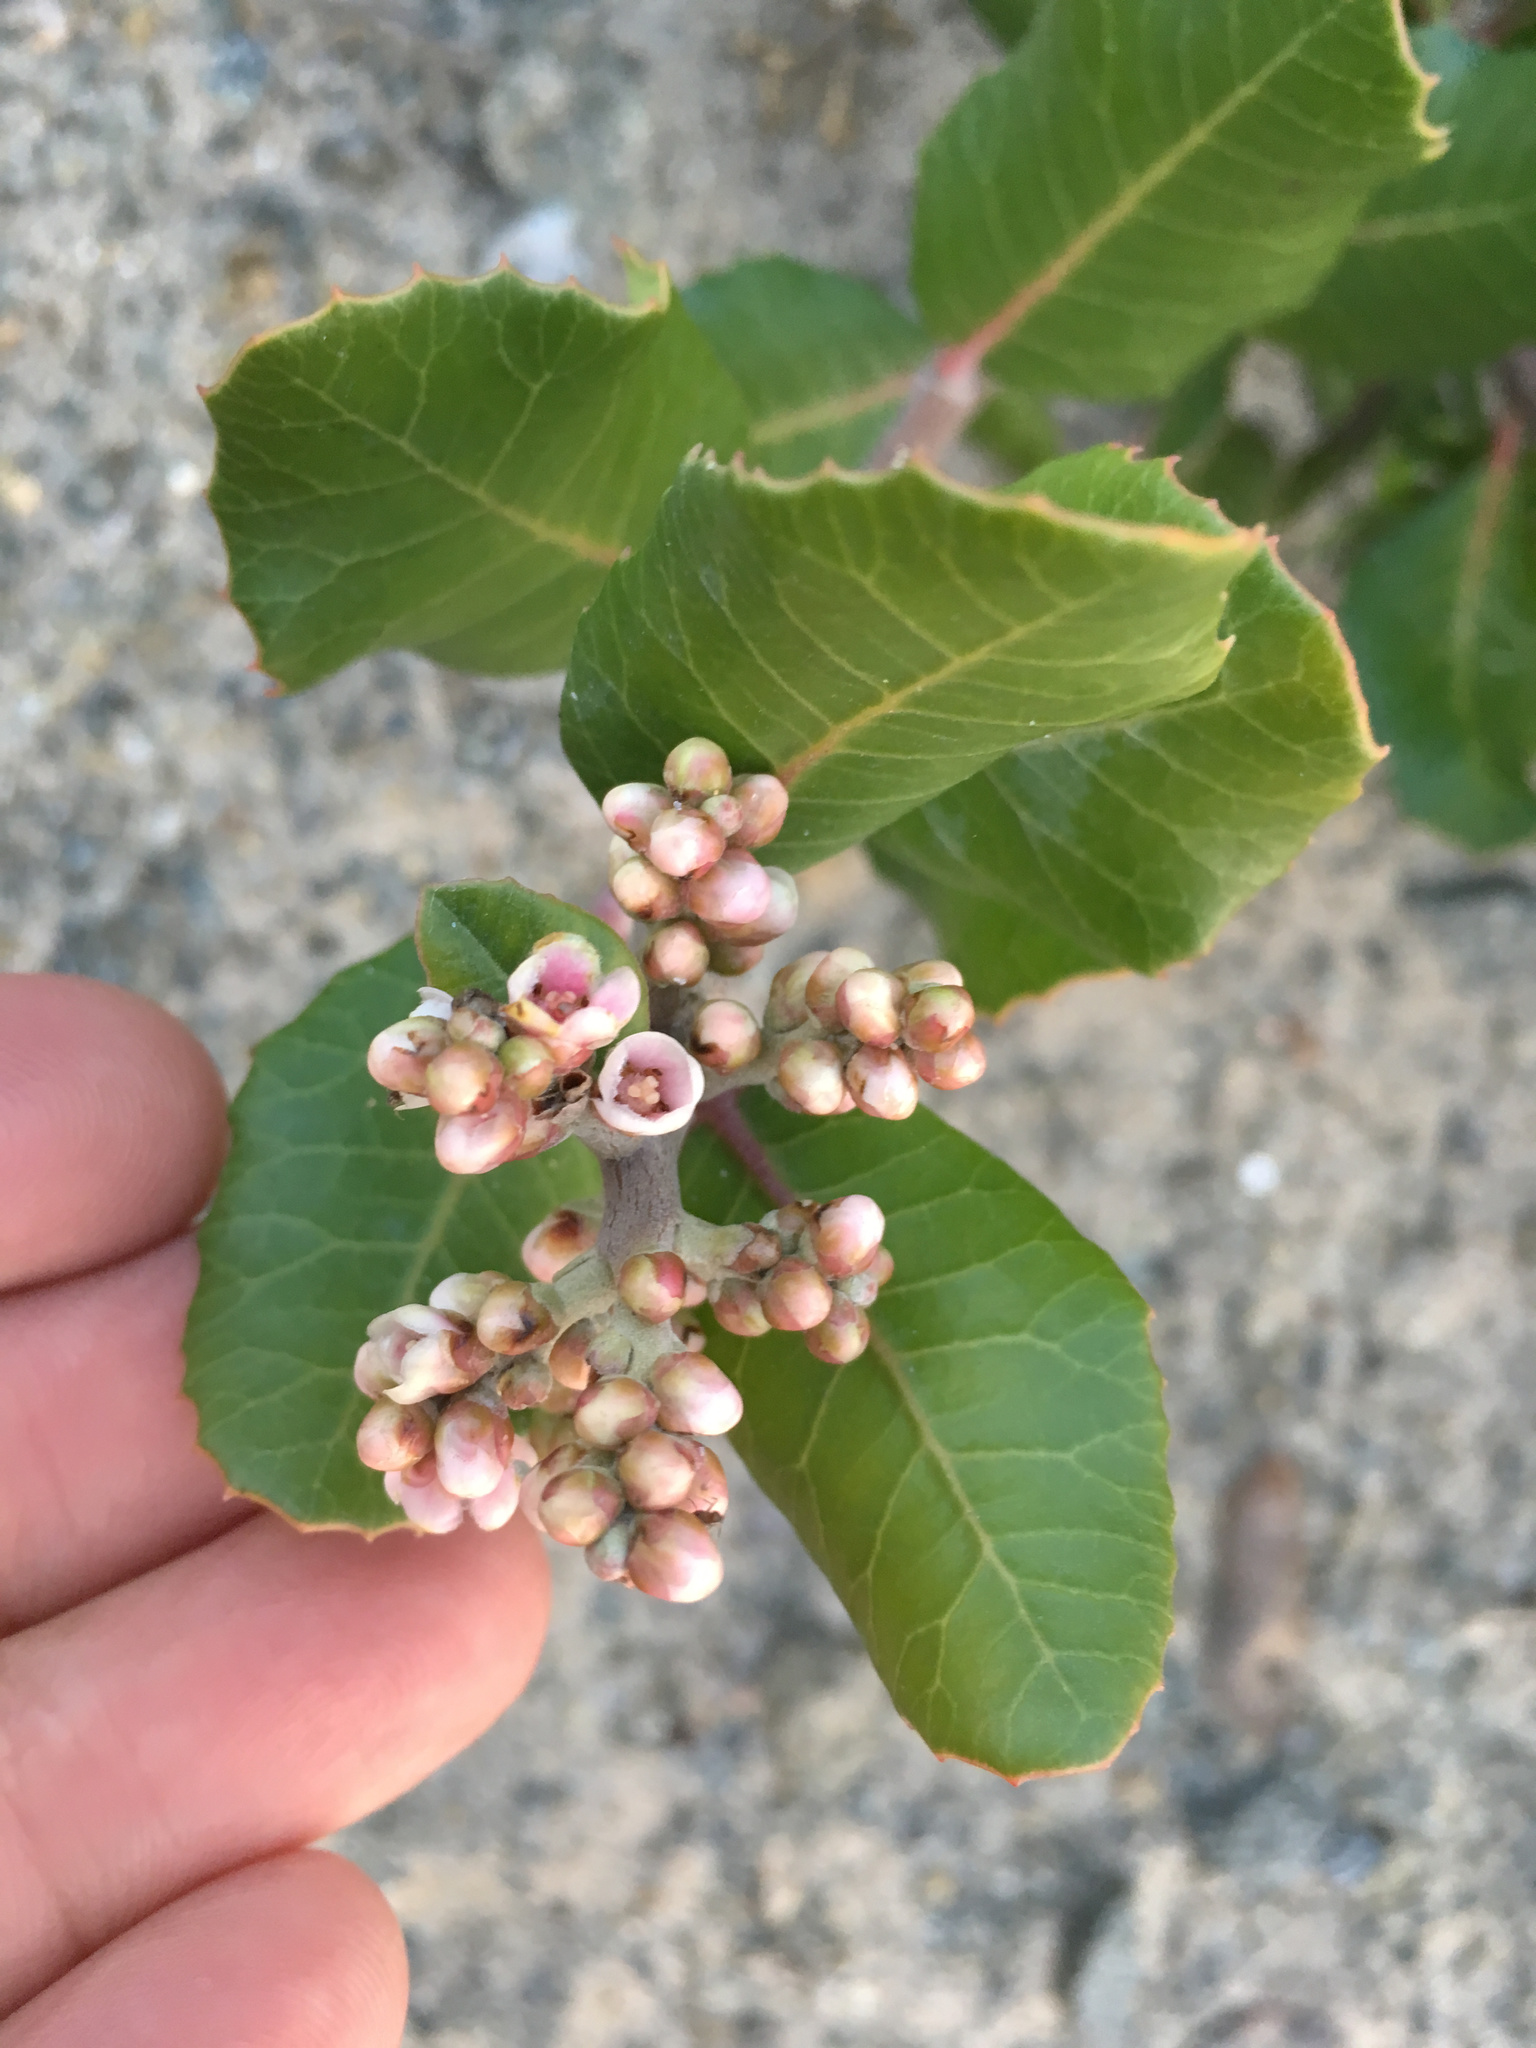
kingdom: Plantae
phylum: Tracheophyta
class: Magnoliopsida
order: Sapindales
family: Anacardiaceae
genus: Rhus
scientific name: Rhus integrifolia
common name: Lemonade sumac
